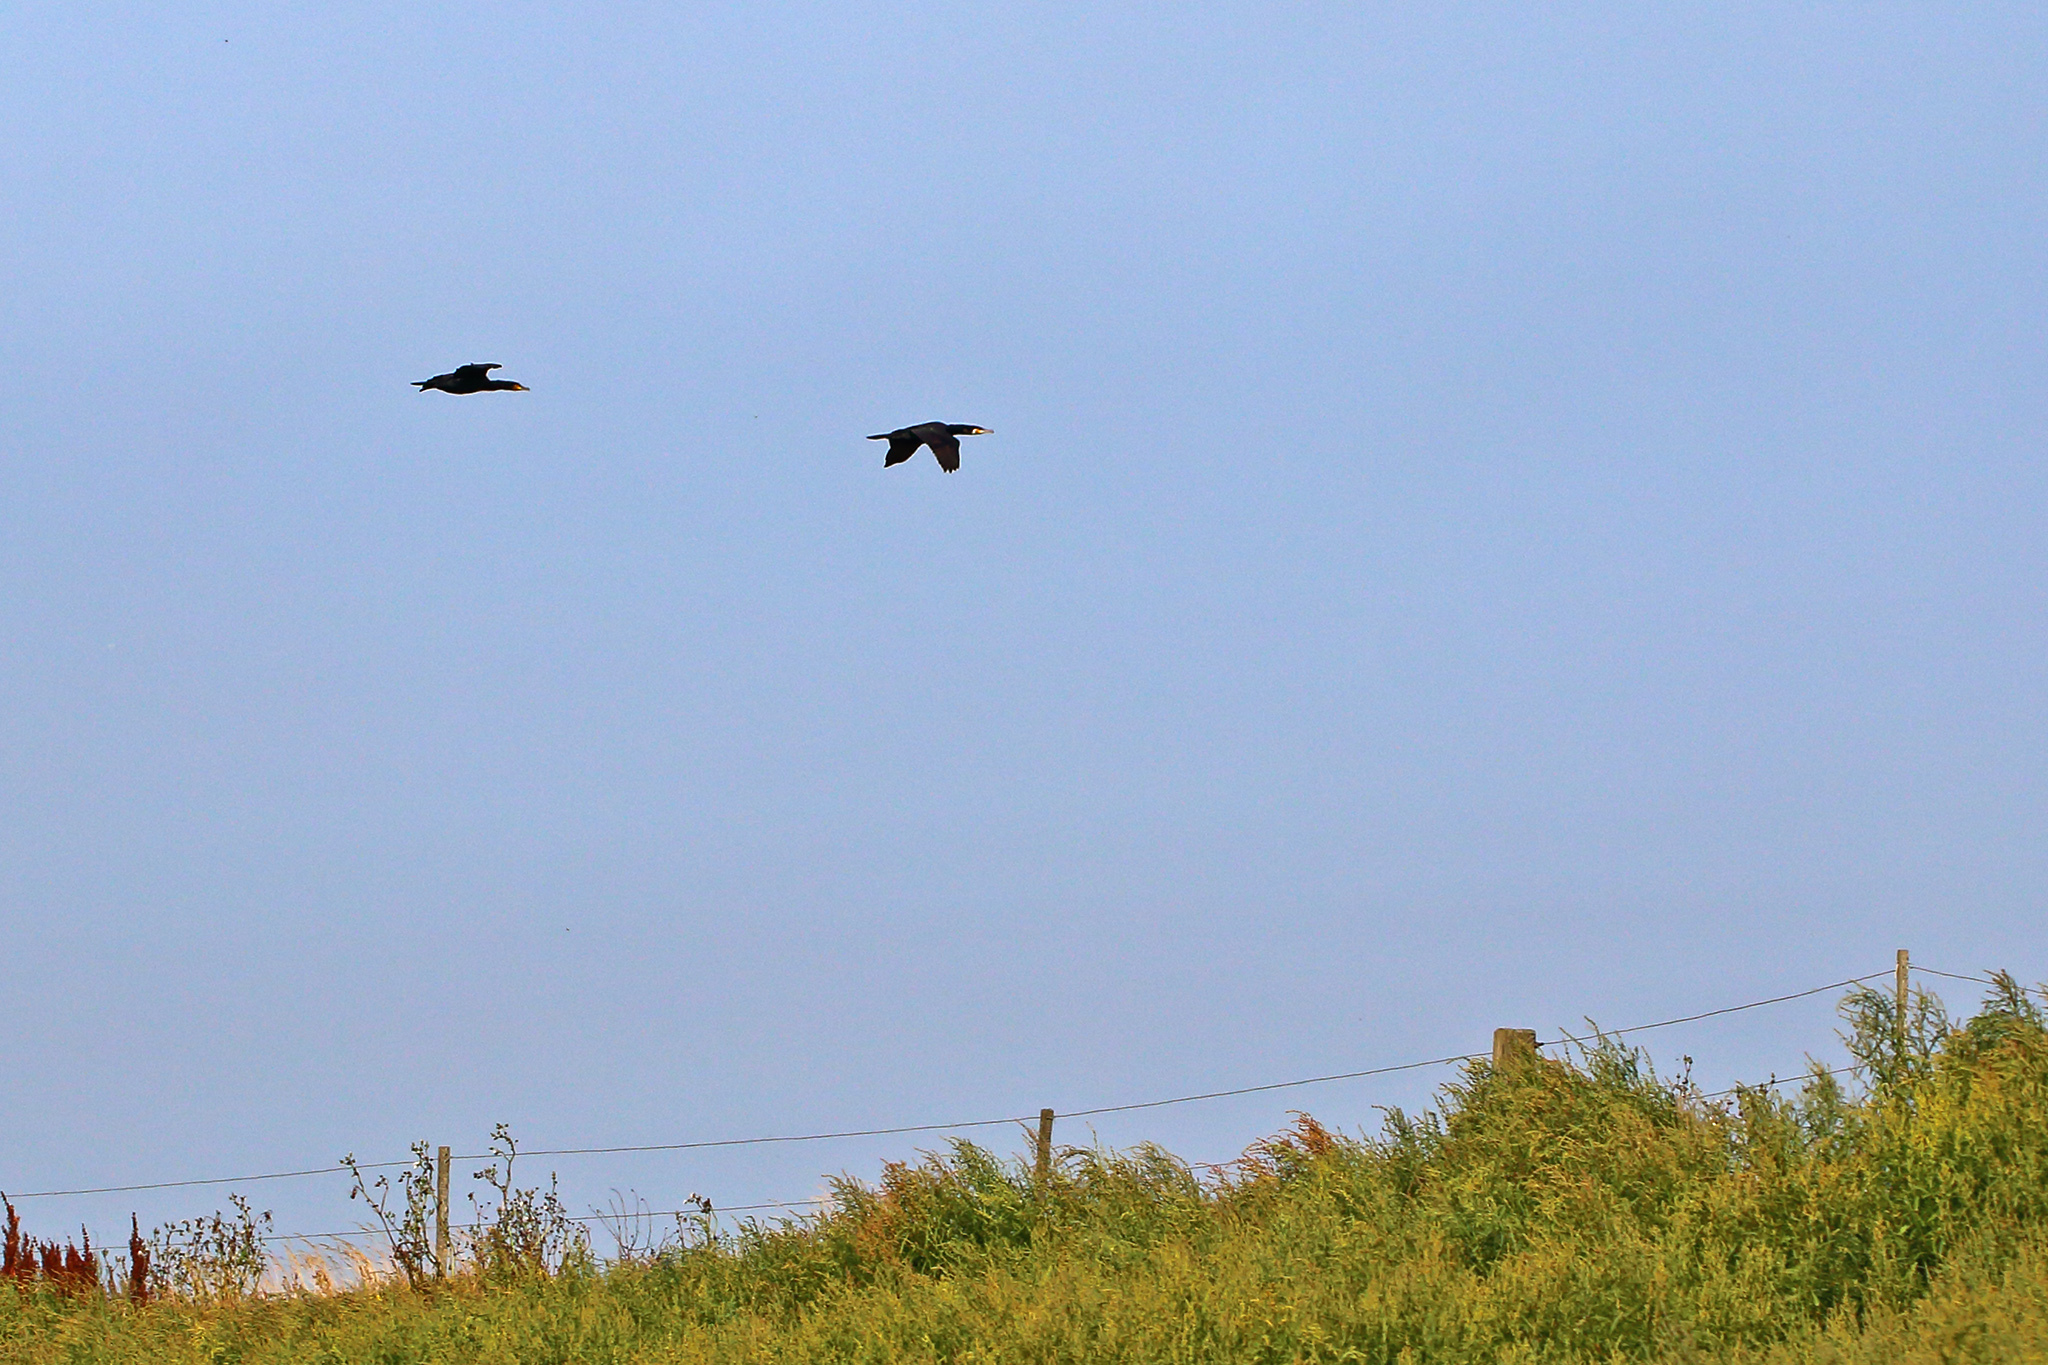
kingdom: Animalia
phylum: Chordata
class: Aves
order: Suliformes
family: Phalacrocoracidae
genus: Phalacrocorax
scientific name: Phalacrocorax carbo
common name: Great cormorant
